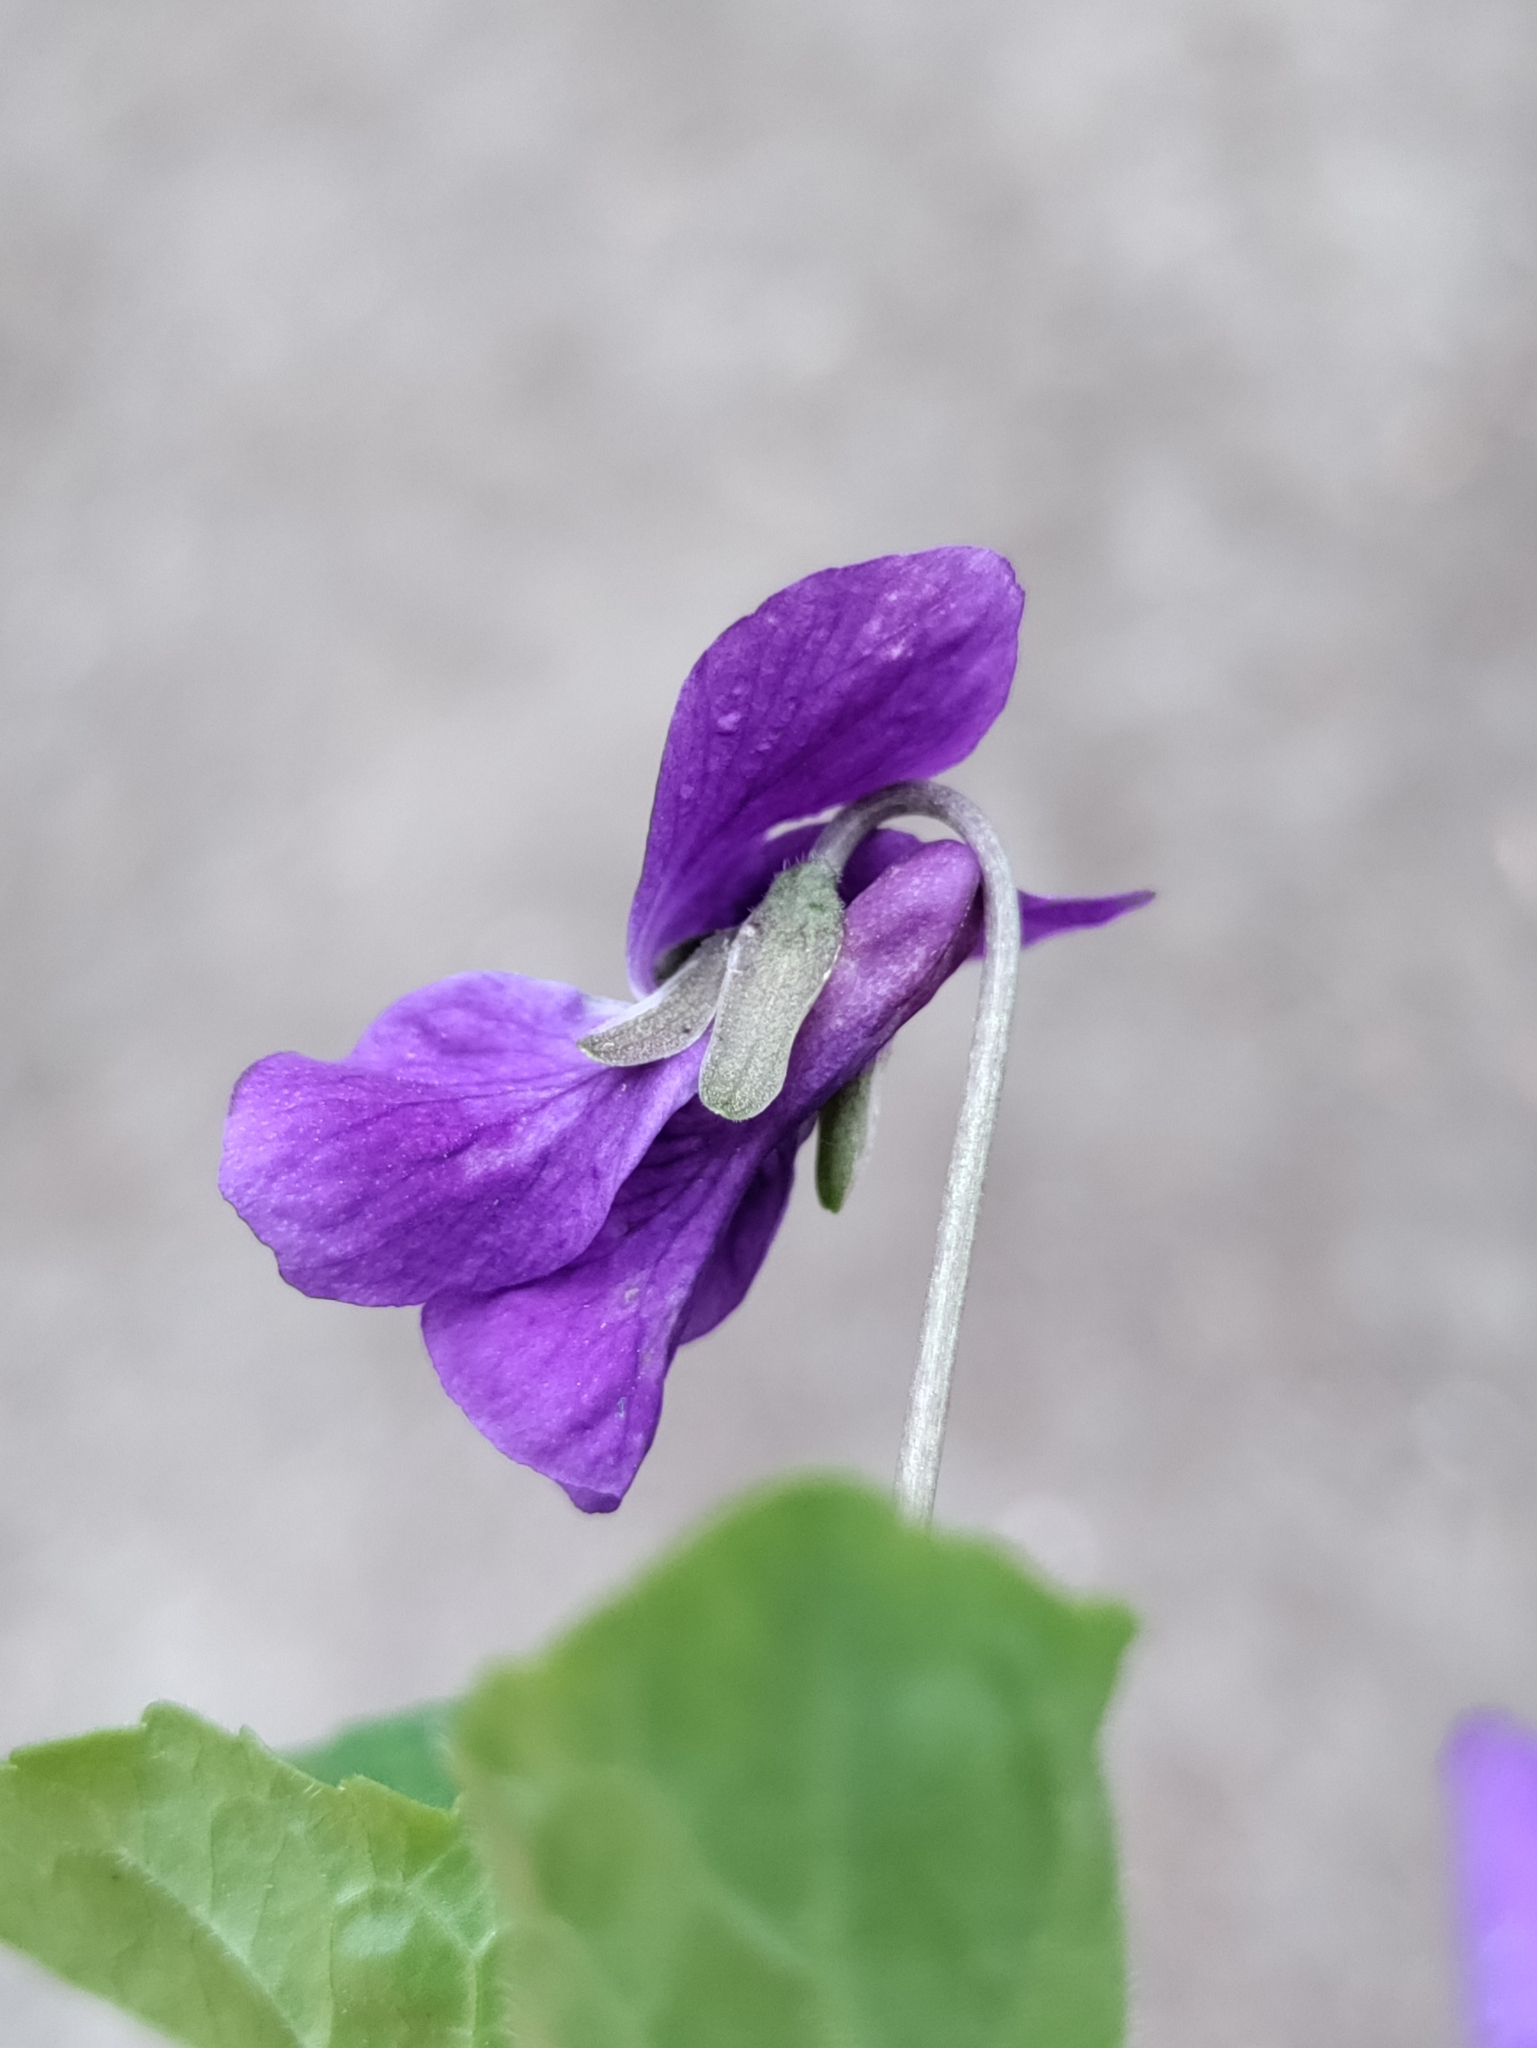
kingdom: Plantae
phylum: Tracheophyta
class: Magnoliopsida
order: Malpighiales
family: Violaceae
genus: Viola
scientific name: Viola odorata
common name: Sweet violet
